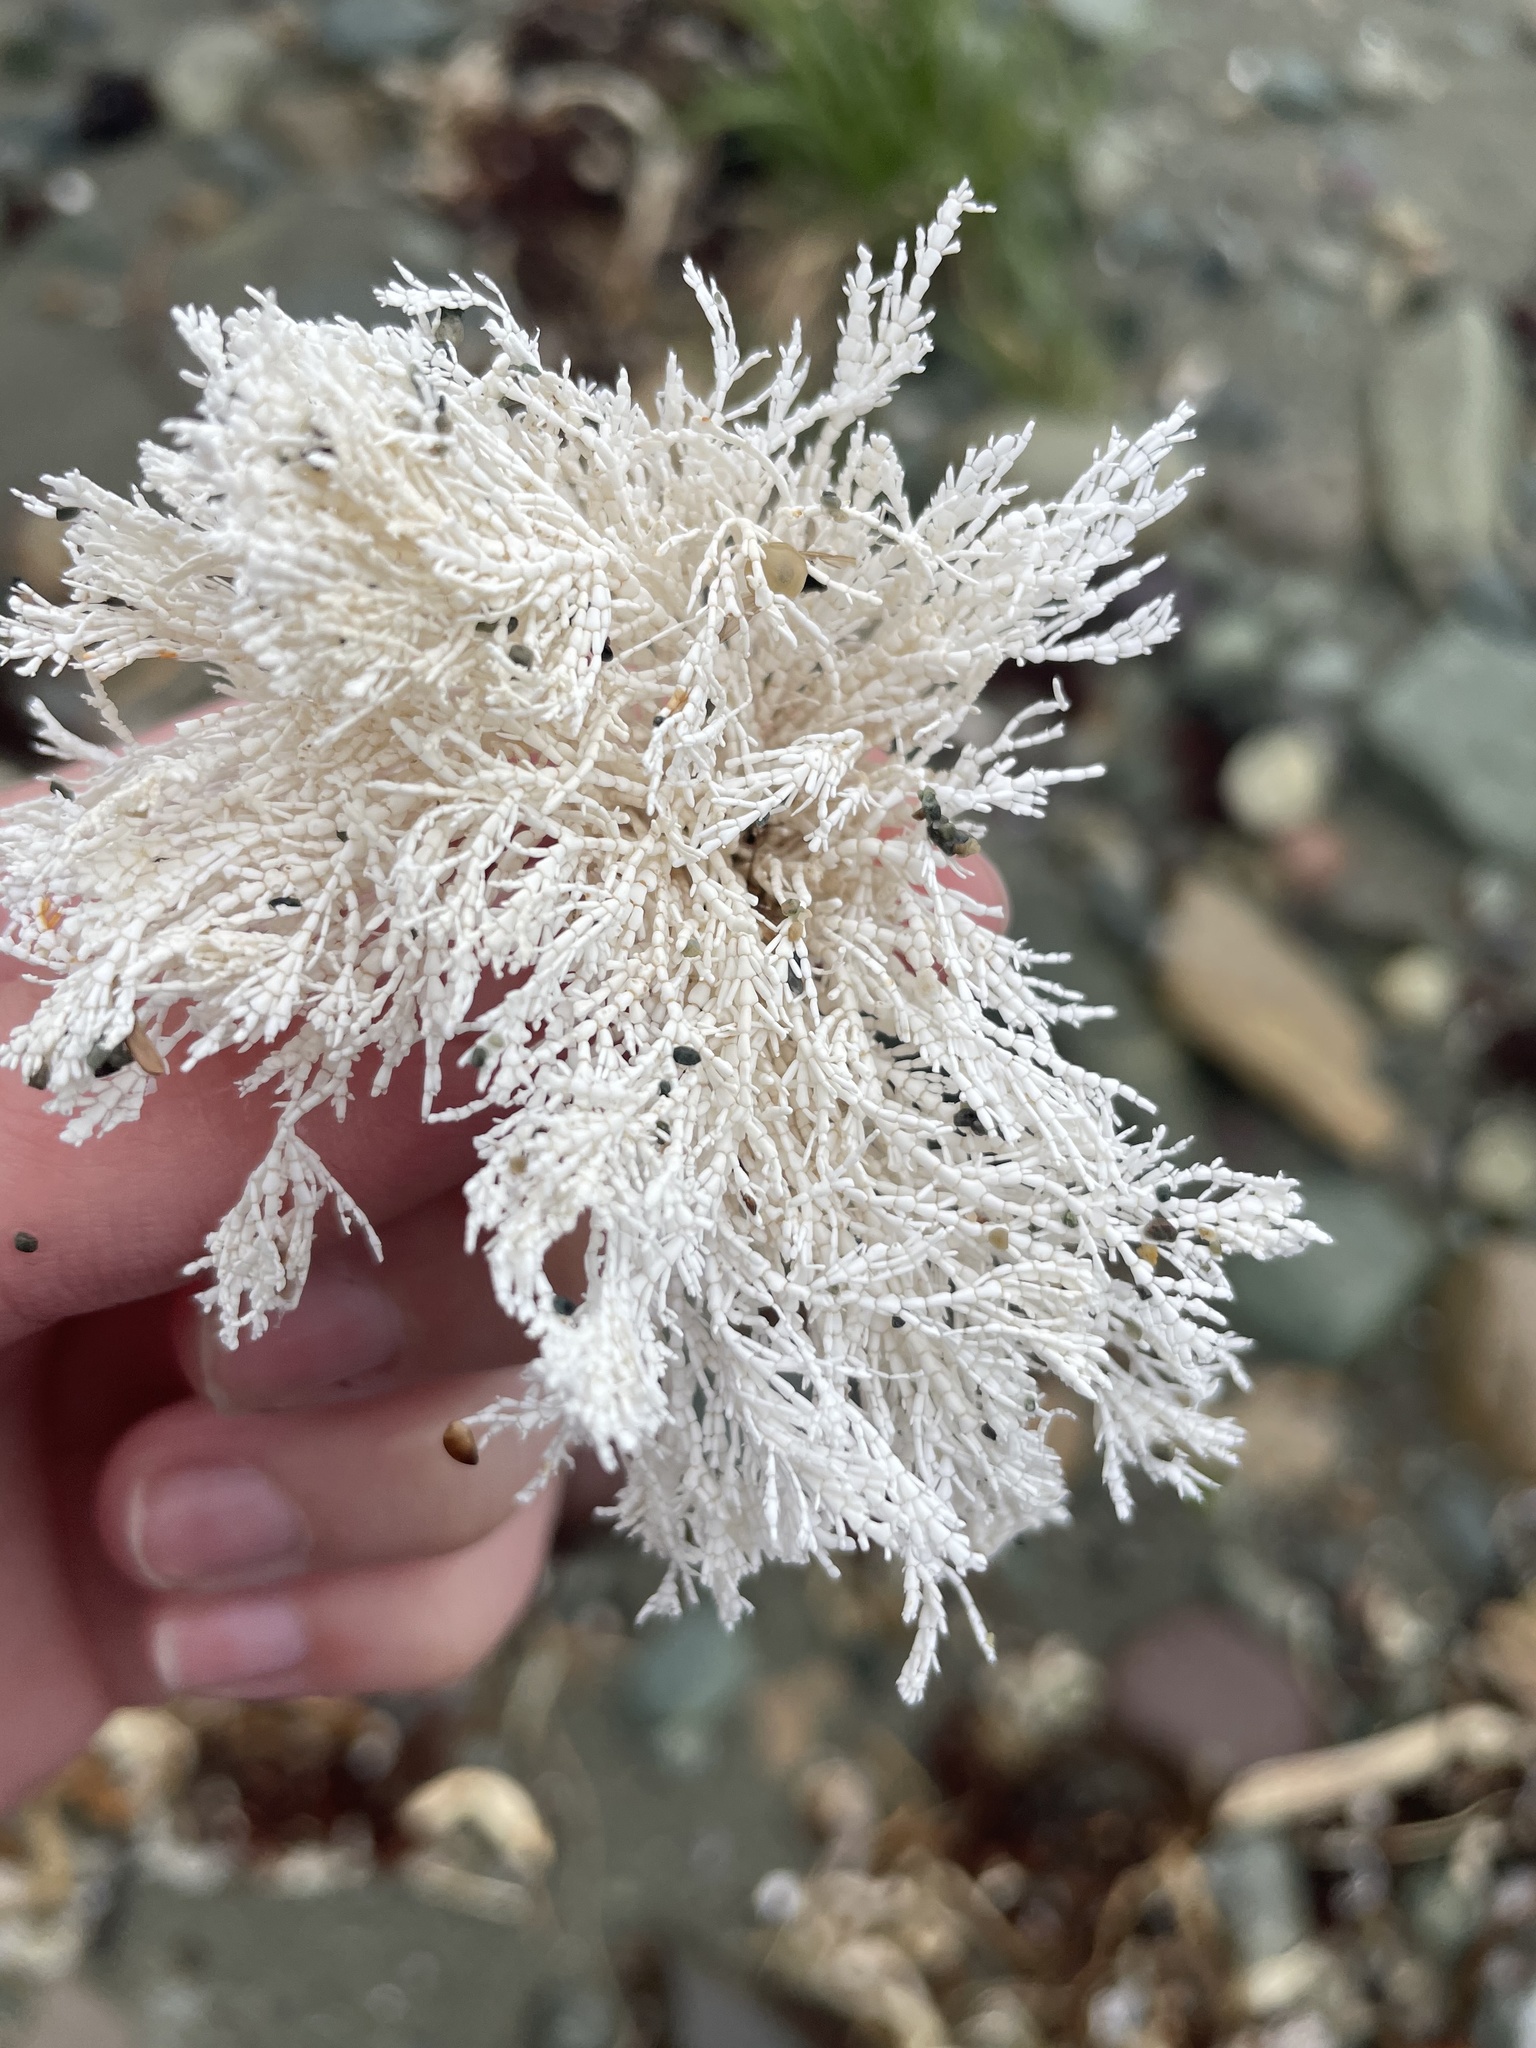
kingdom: Plantae
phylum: Rhodophyta
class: Florideophyceae
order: Corallinales
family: Corallinaceae
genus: Corallina
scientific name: Corallina officinalis
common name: Coral weed
